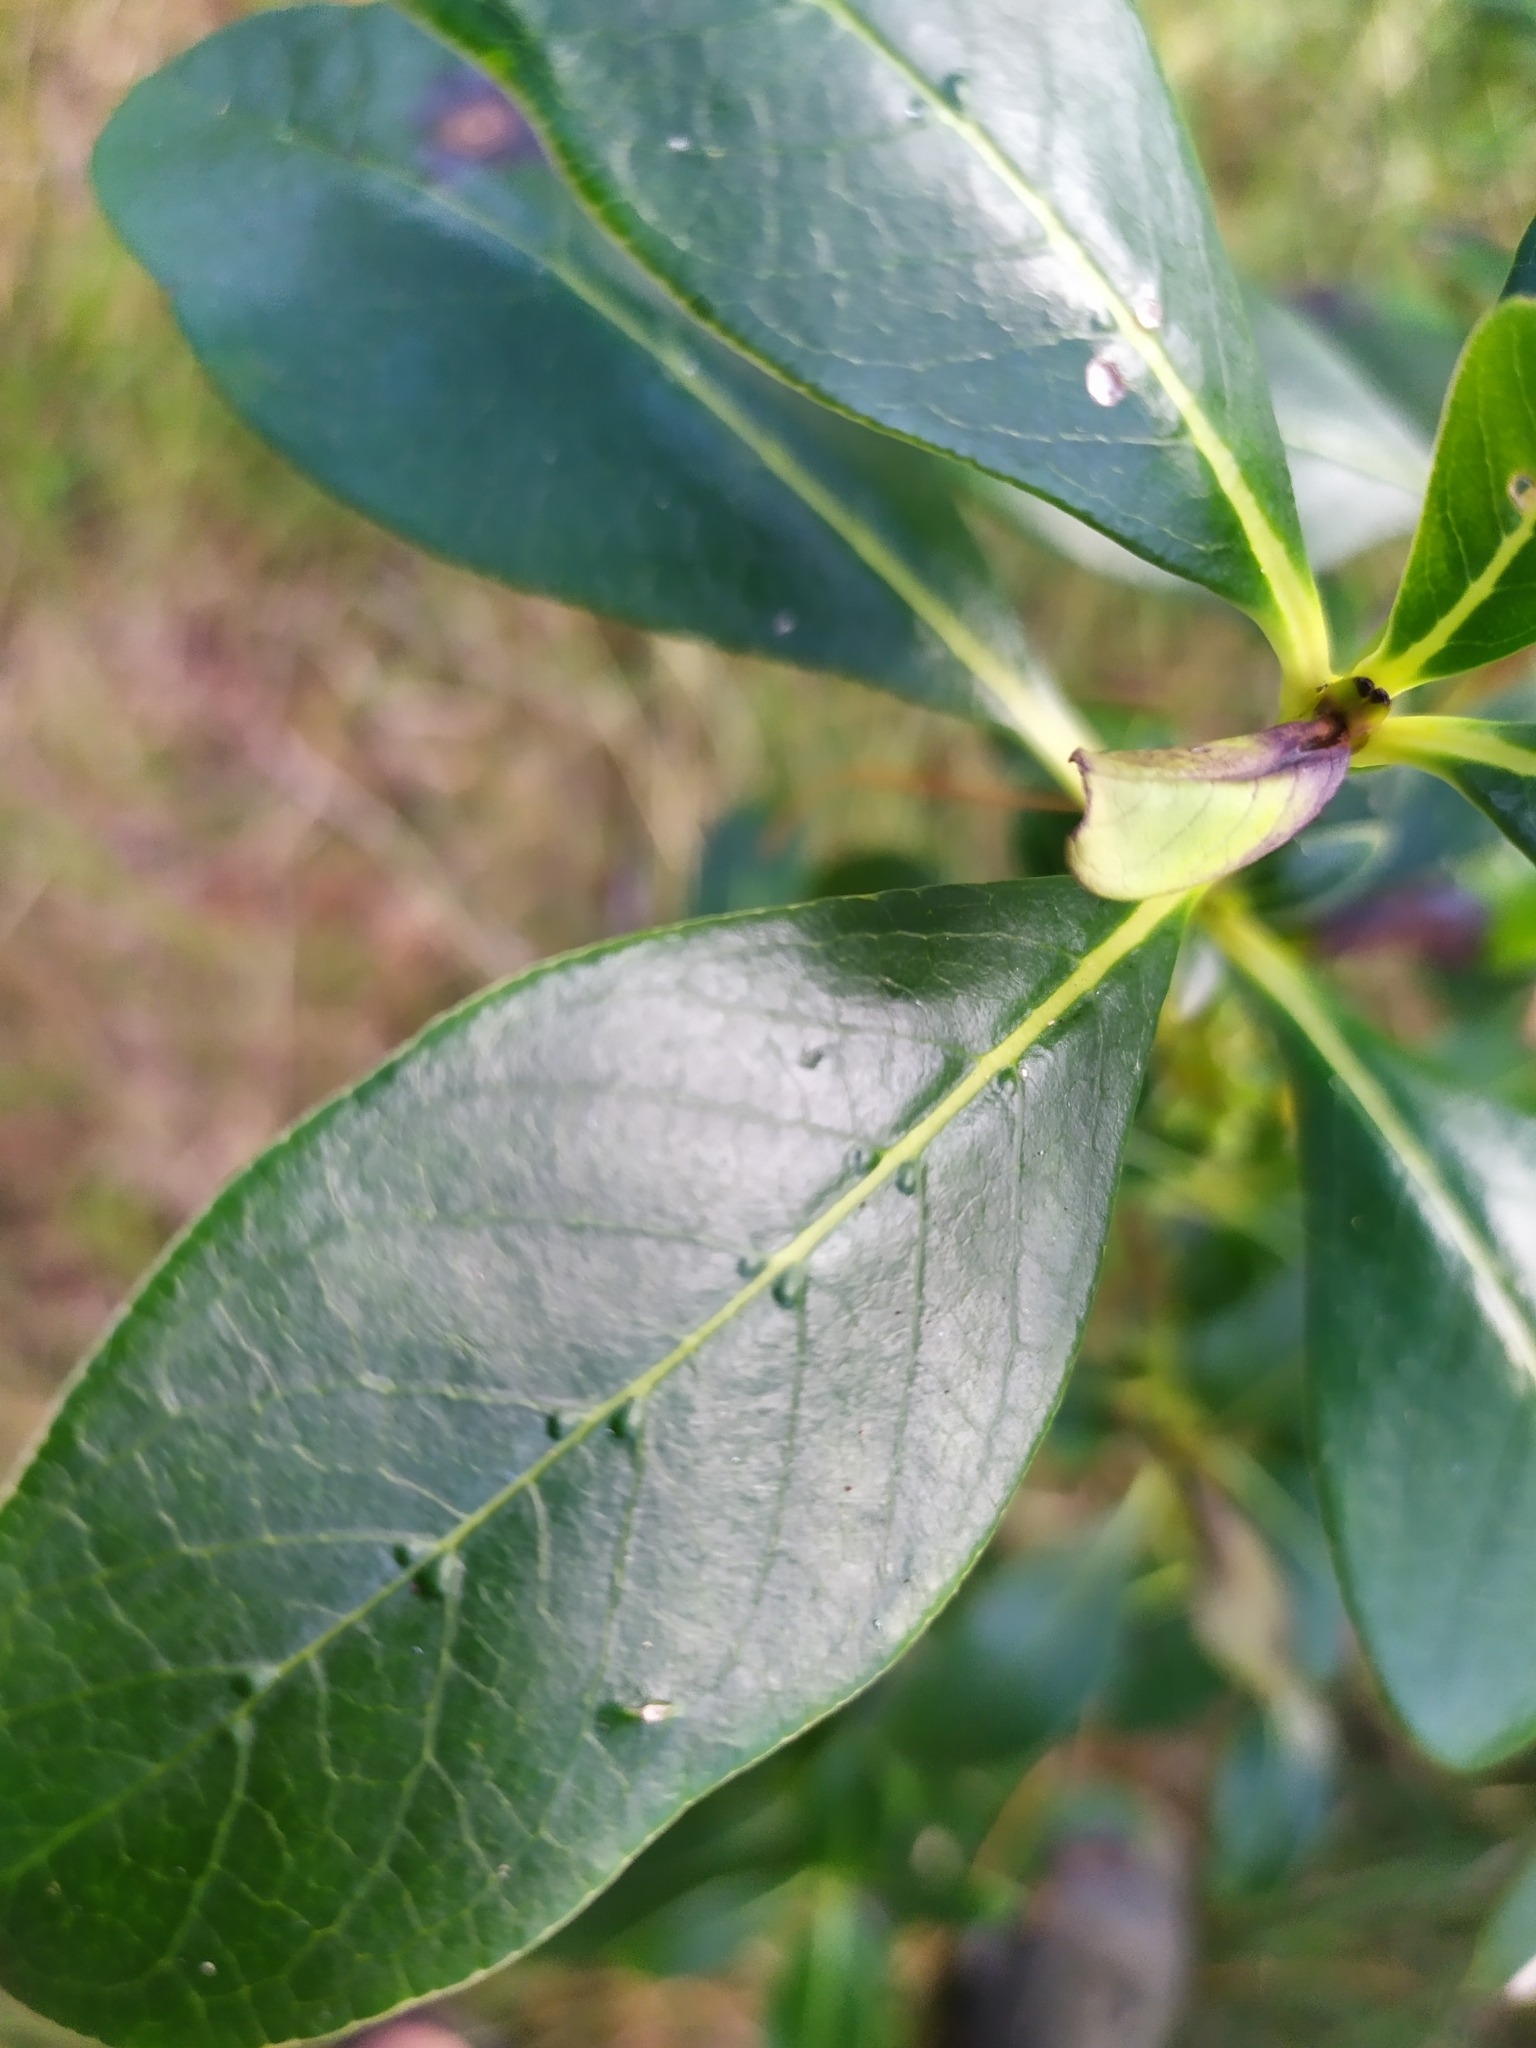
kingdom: Plantae
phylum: Tracheophyta
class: Magnoliopsida
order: Gentianales
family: Rubiaceae
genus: Coprosma
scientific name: Coprosma robusta
